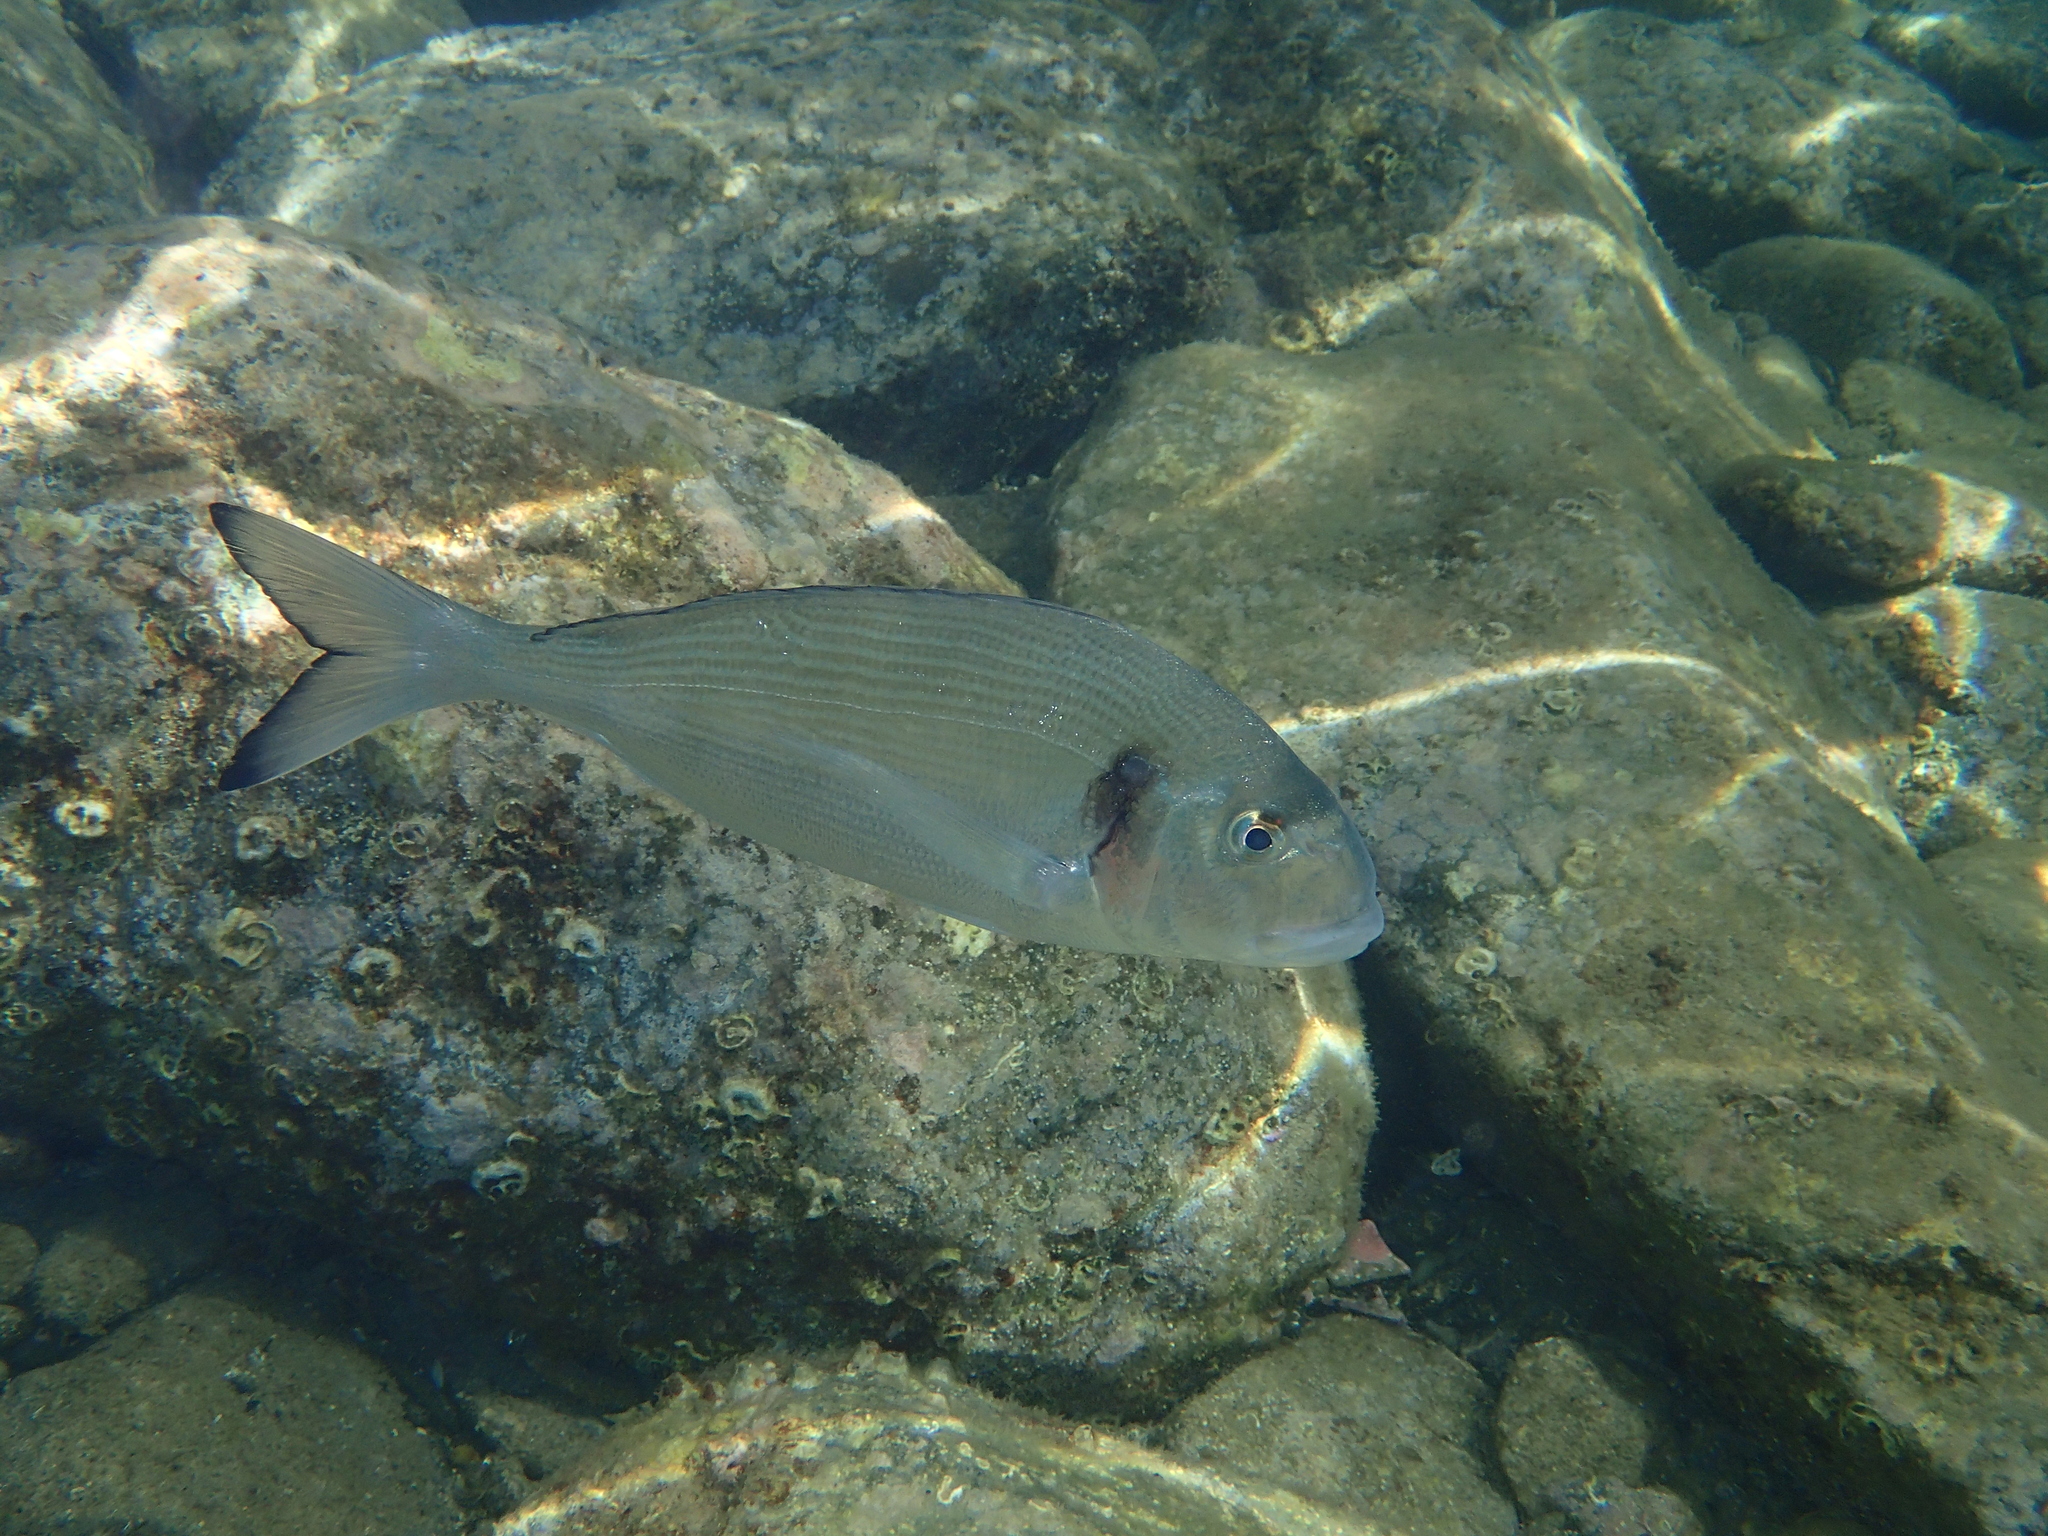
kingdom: Animalia
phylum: Chordata
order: Perciformes
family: Sparidae
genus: Sparus
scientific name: Sparus aurata
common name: Gilthead
